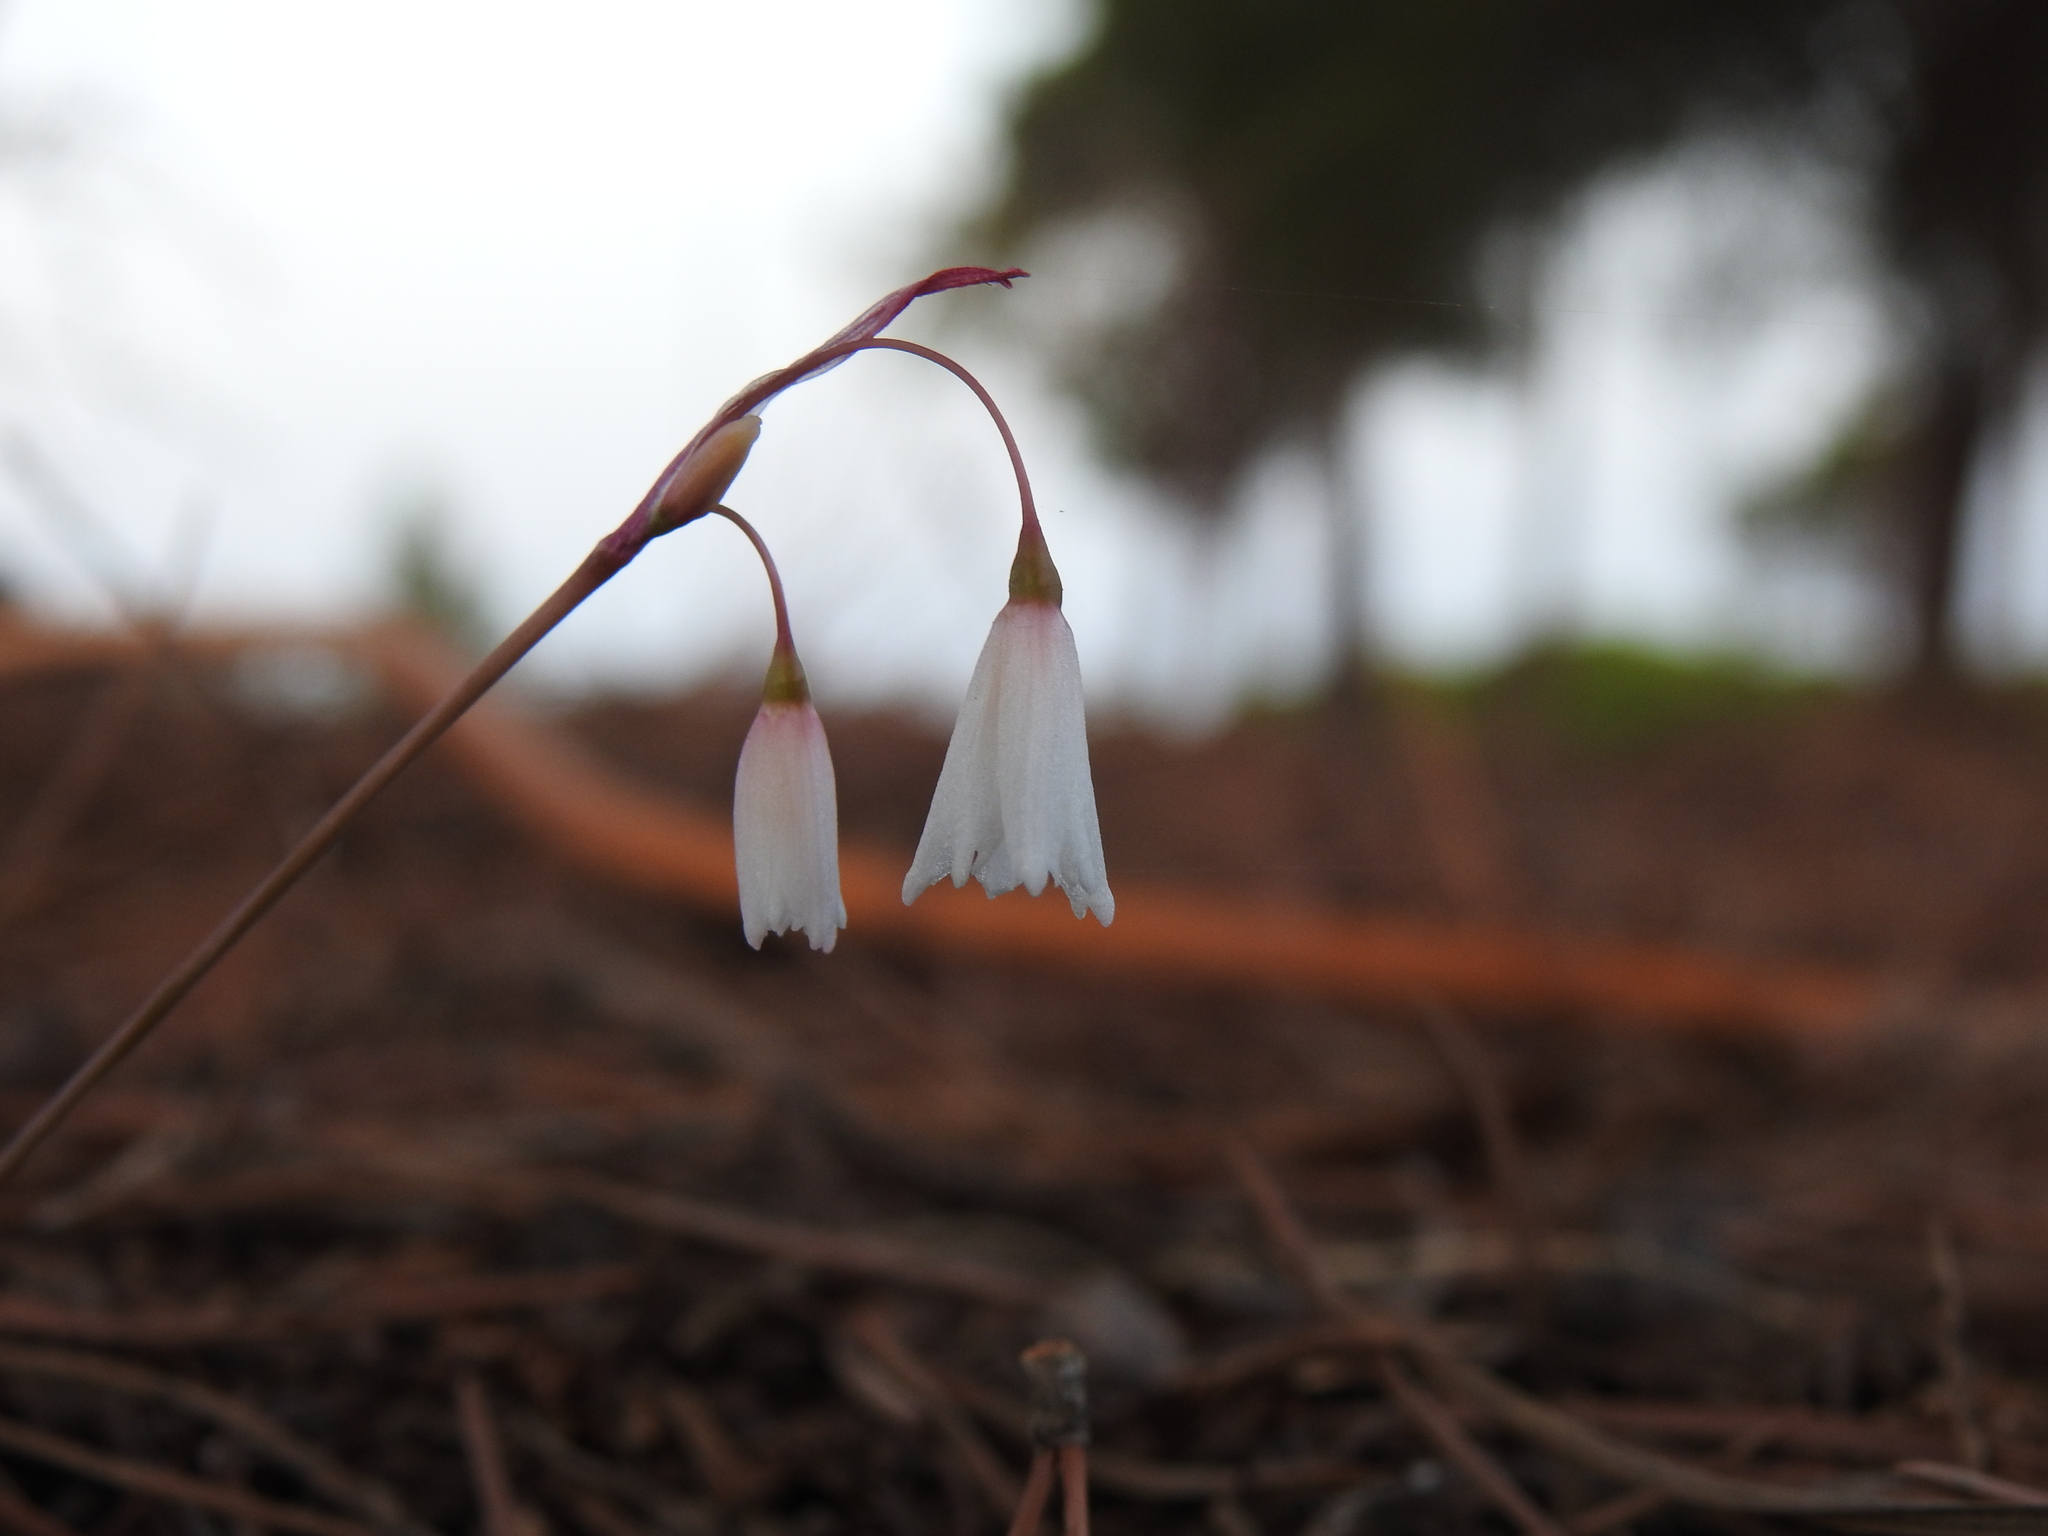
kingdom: Plantae
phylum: Tracheophyta
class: Liliopsida
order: Asparagales
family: Amaryllidaceae
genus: Acis
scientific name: Acis autumnalis
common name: Autumn snowflake
